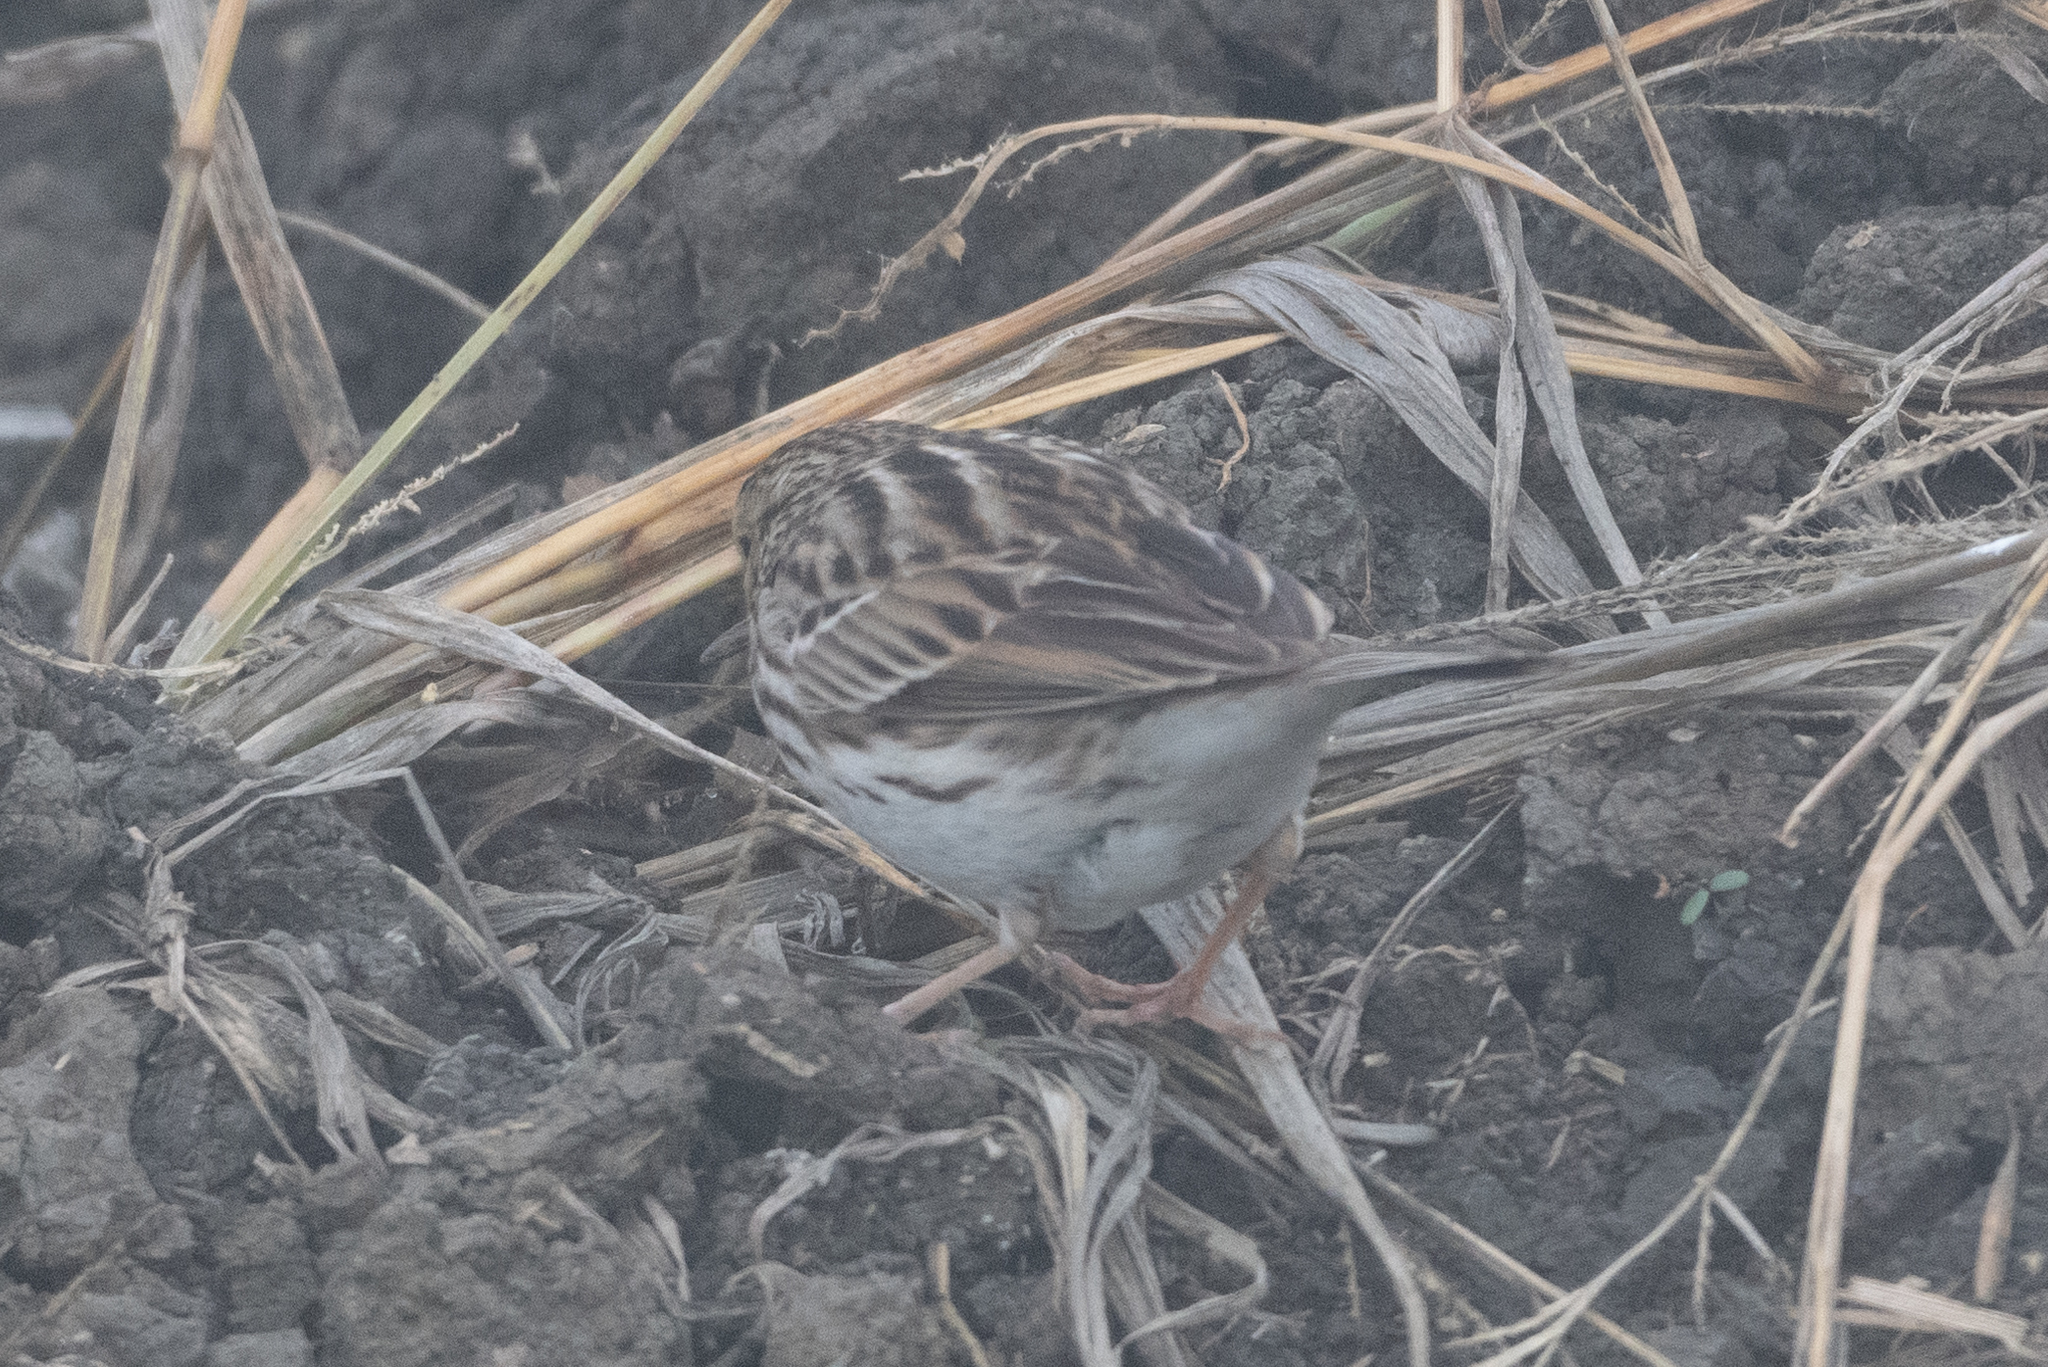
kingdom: Animalia
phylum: Chordata
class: Aves
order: Passeriformes
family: Passerellidae
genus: Passerculus
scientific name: Passerculus sandwichensis
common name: Savannah sparrow
